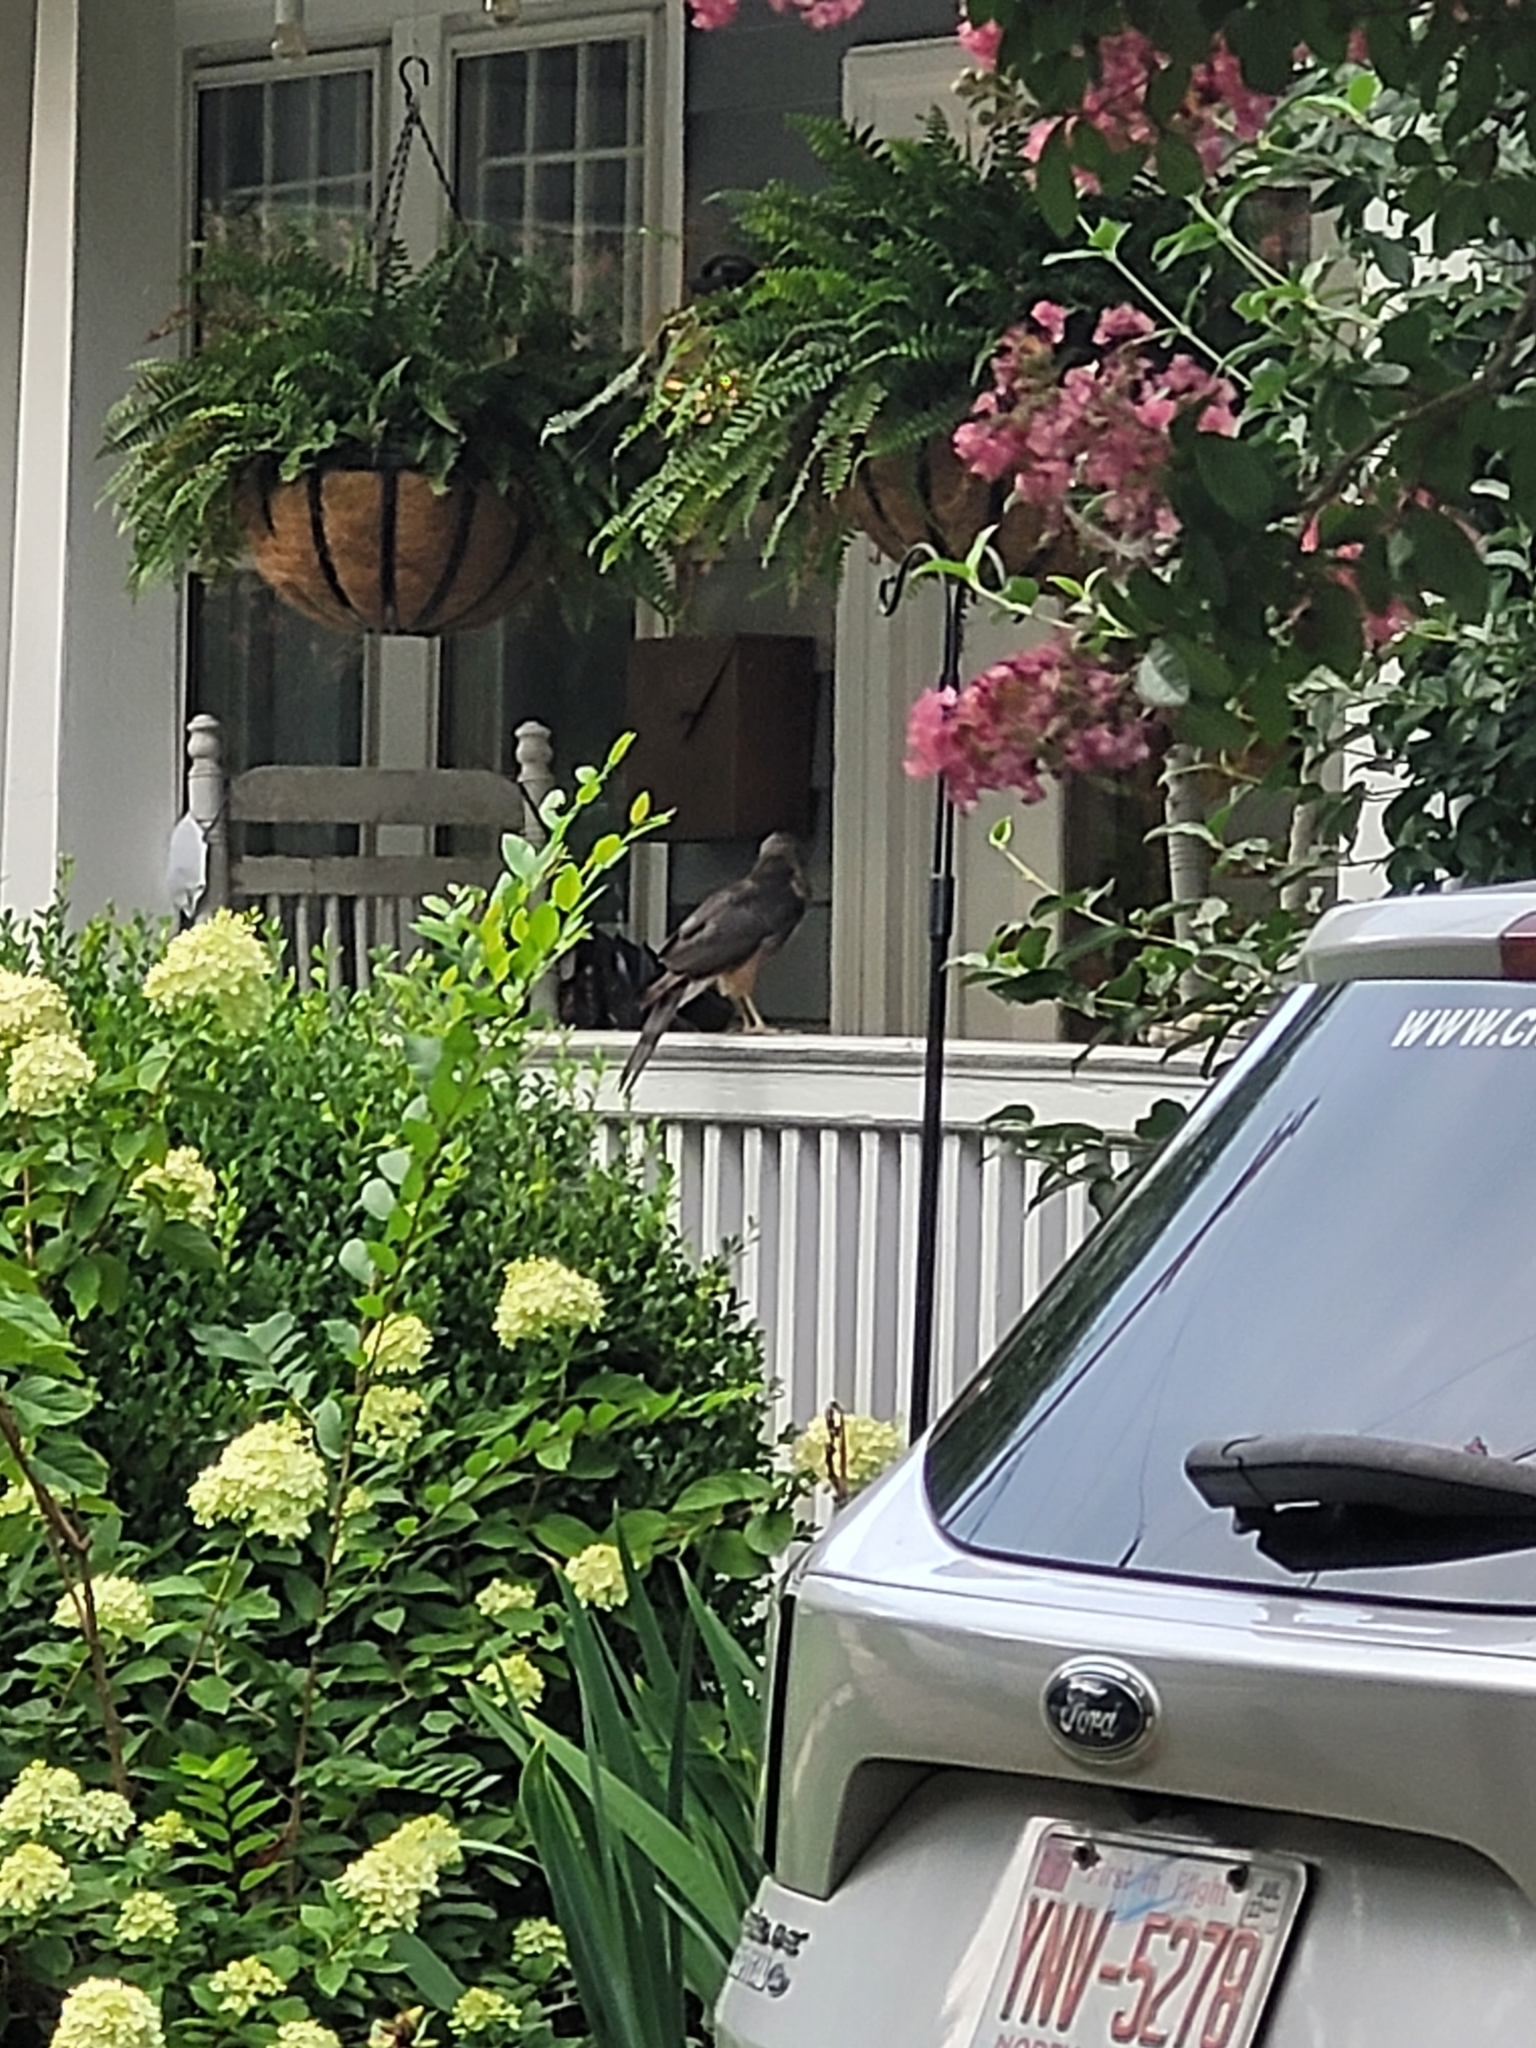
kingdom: Animalia
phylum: Chordata
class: Aves
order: Accipitriformes
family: Accipitridae
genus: Accipiter
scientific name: Accipiter cooperii
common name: Cooper's hawk
